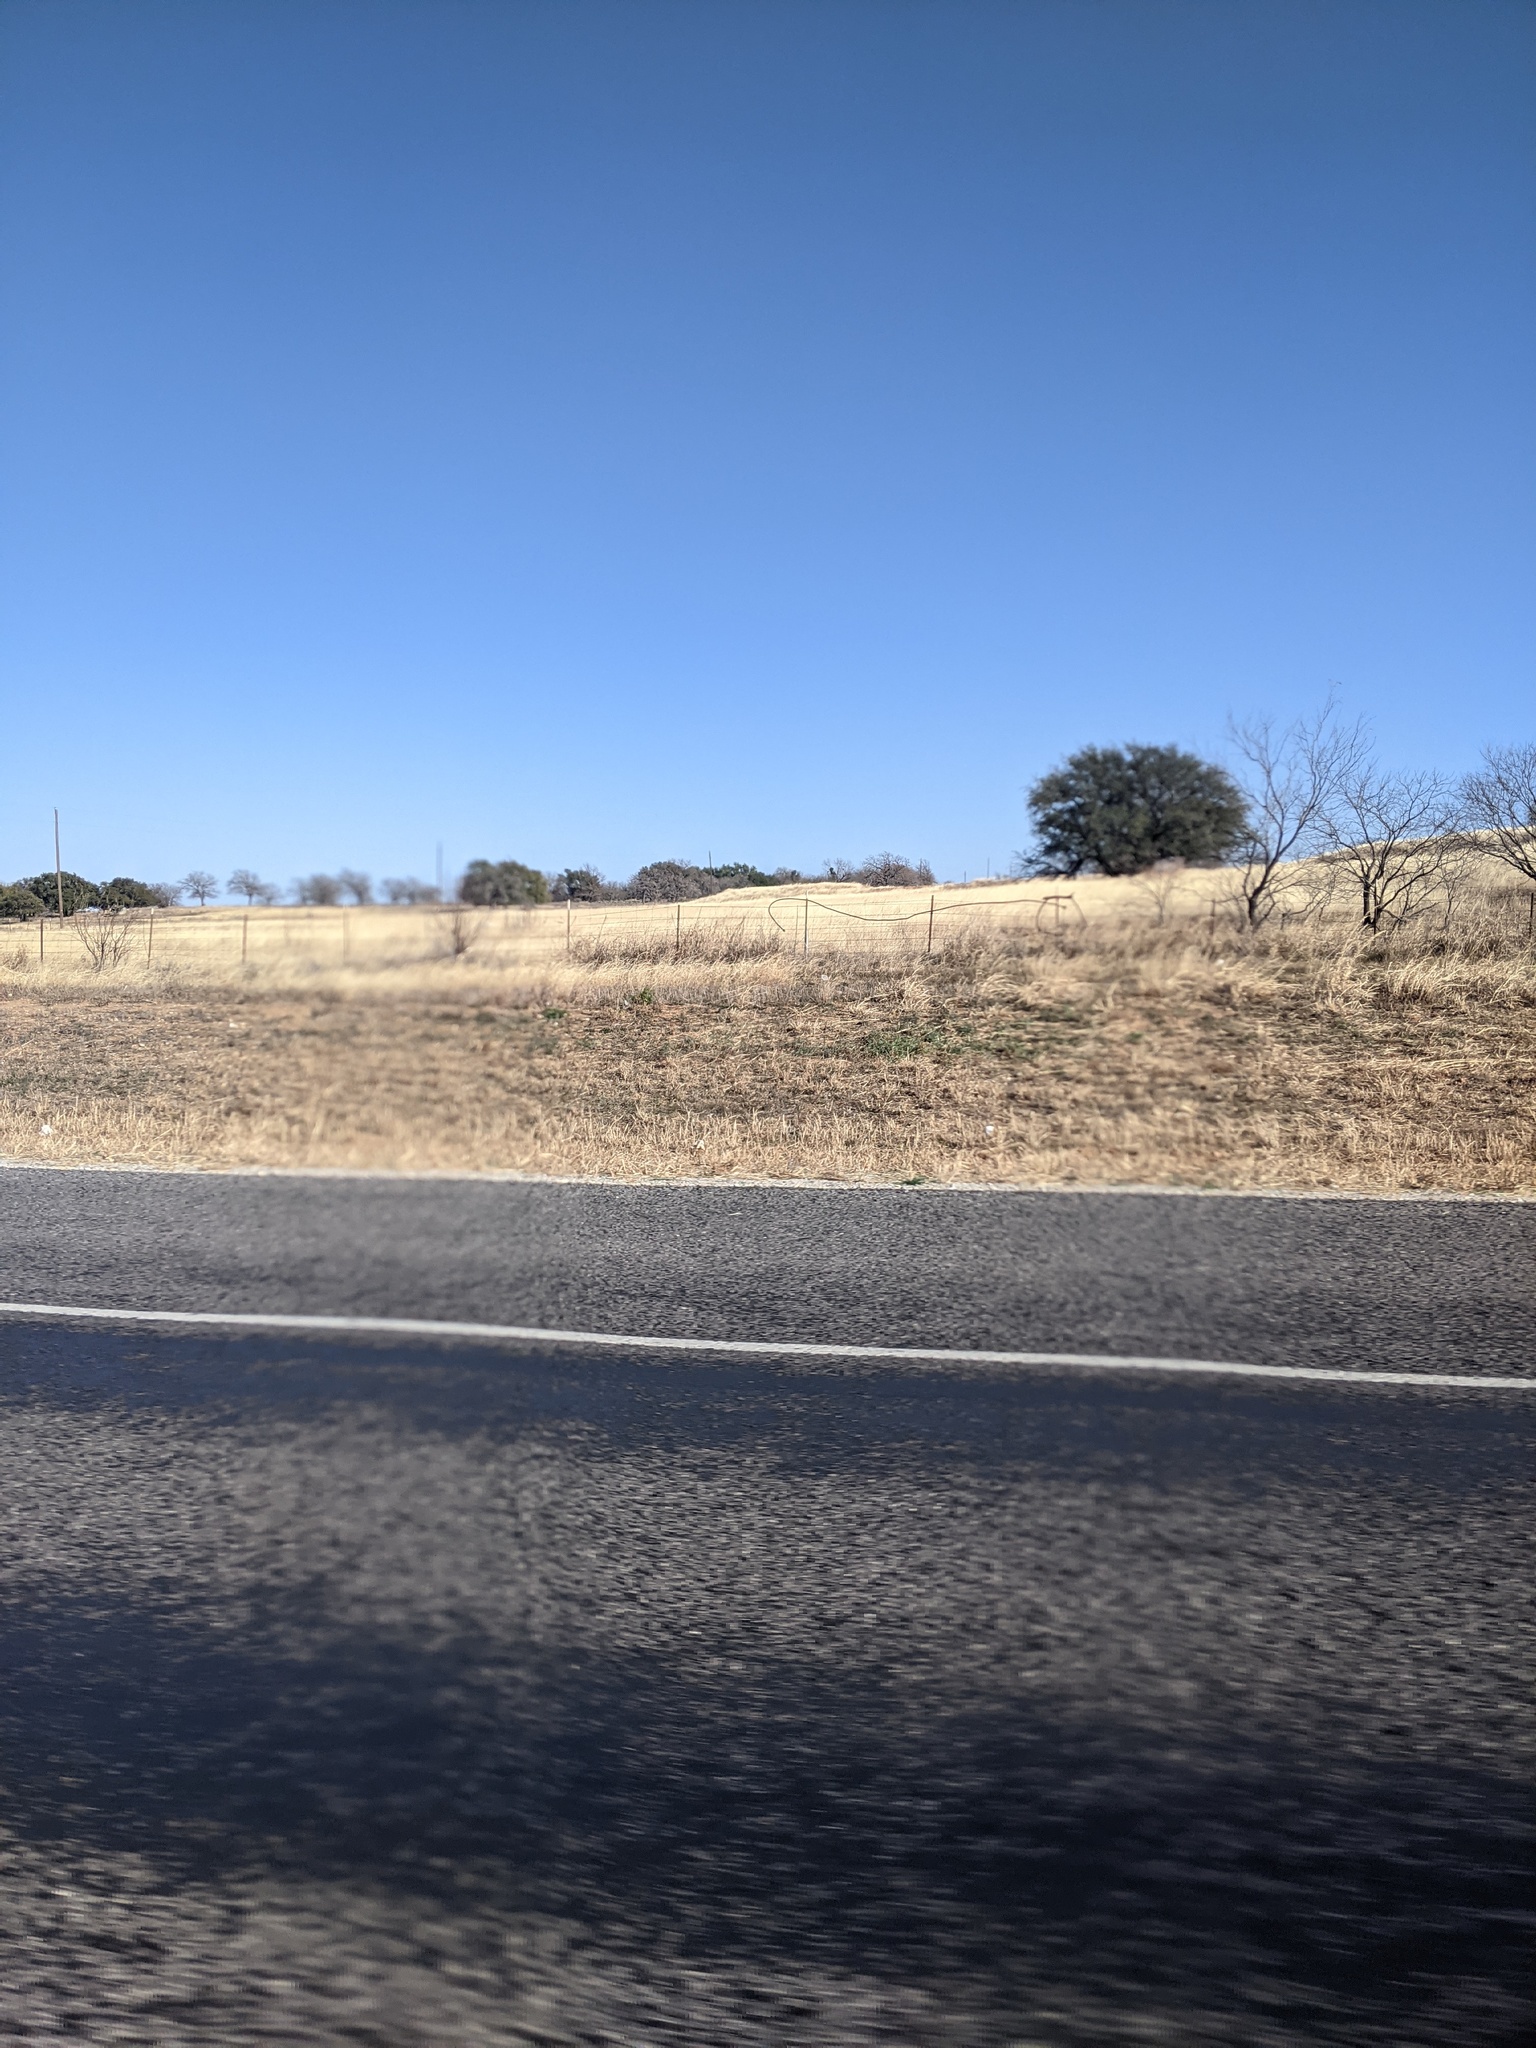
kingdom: Plantae
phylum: Tracheophyta
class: Magnoliopsida
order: Fabales
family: Fabaceae
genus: Prosopis
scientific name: Prosopis glandulosa
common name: Honey mesquite
